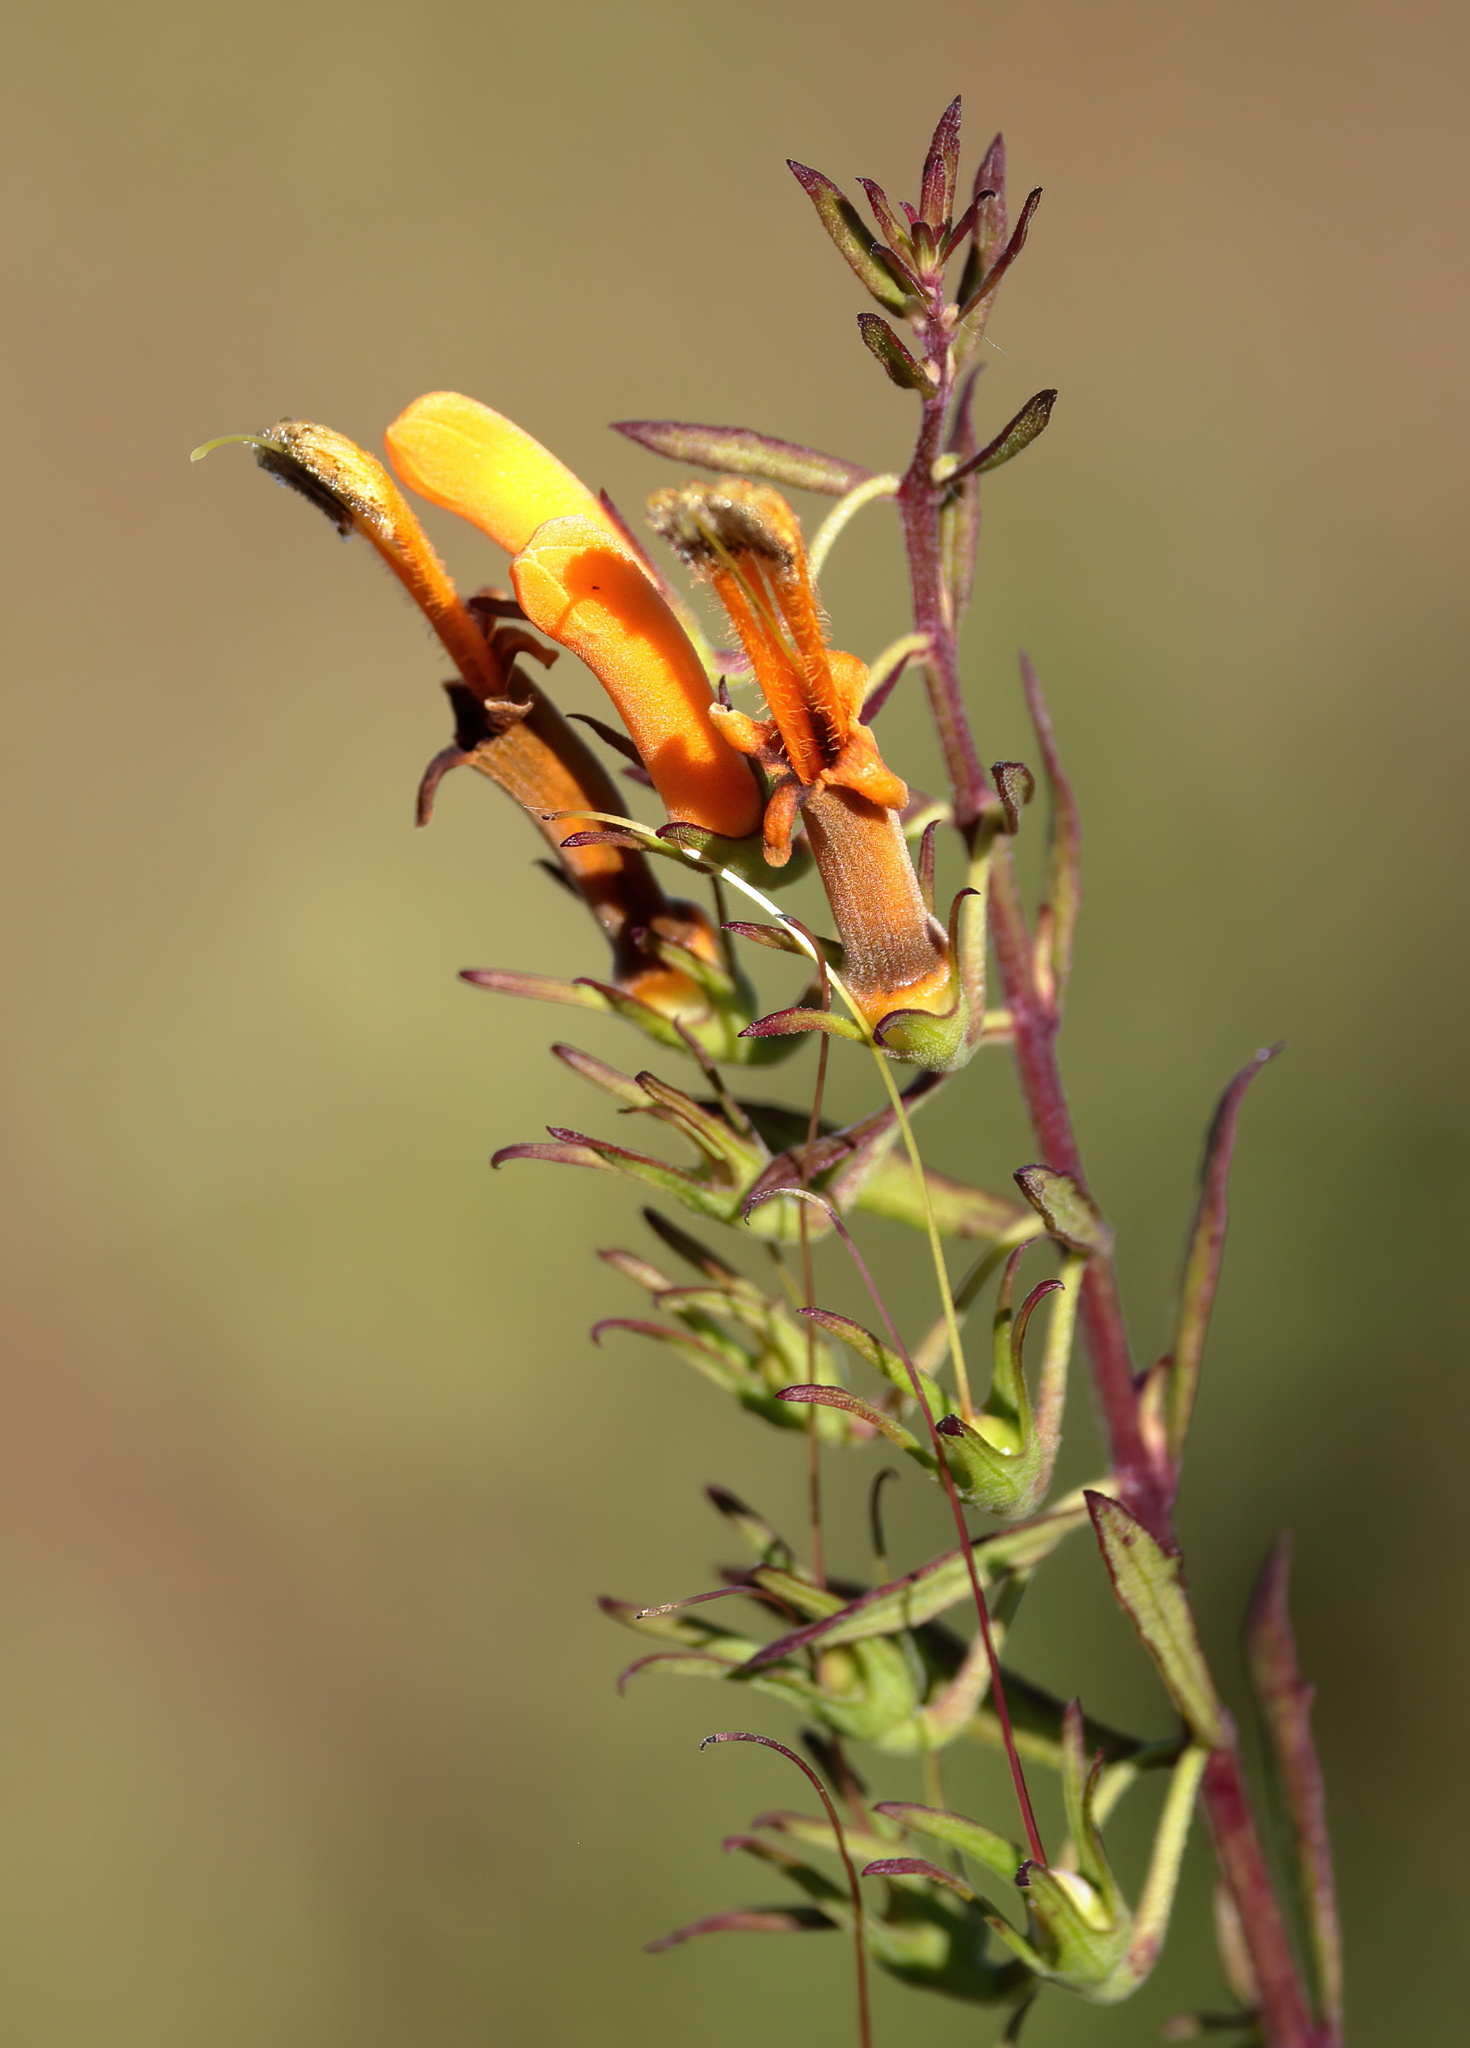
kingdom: Plantae
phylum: Tracheophyta
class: Magnoliopsida
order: Lamiales
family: Orobanchaceae
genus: Macranthera
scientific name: Macranthera flammea
